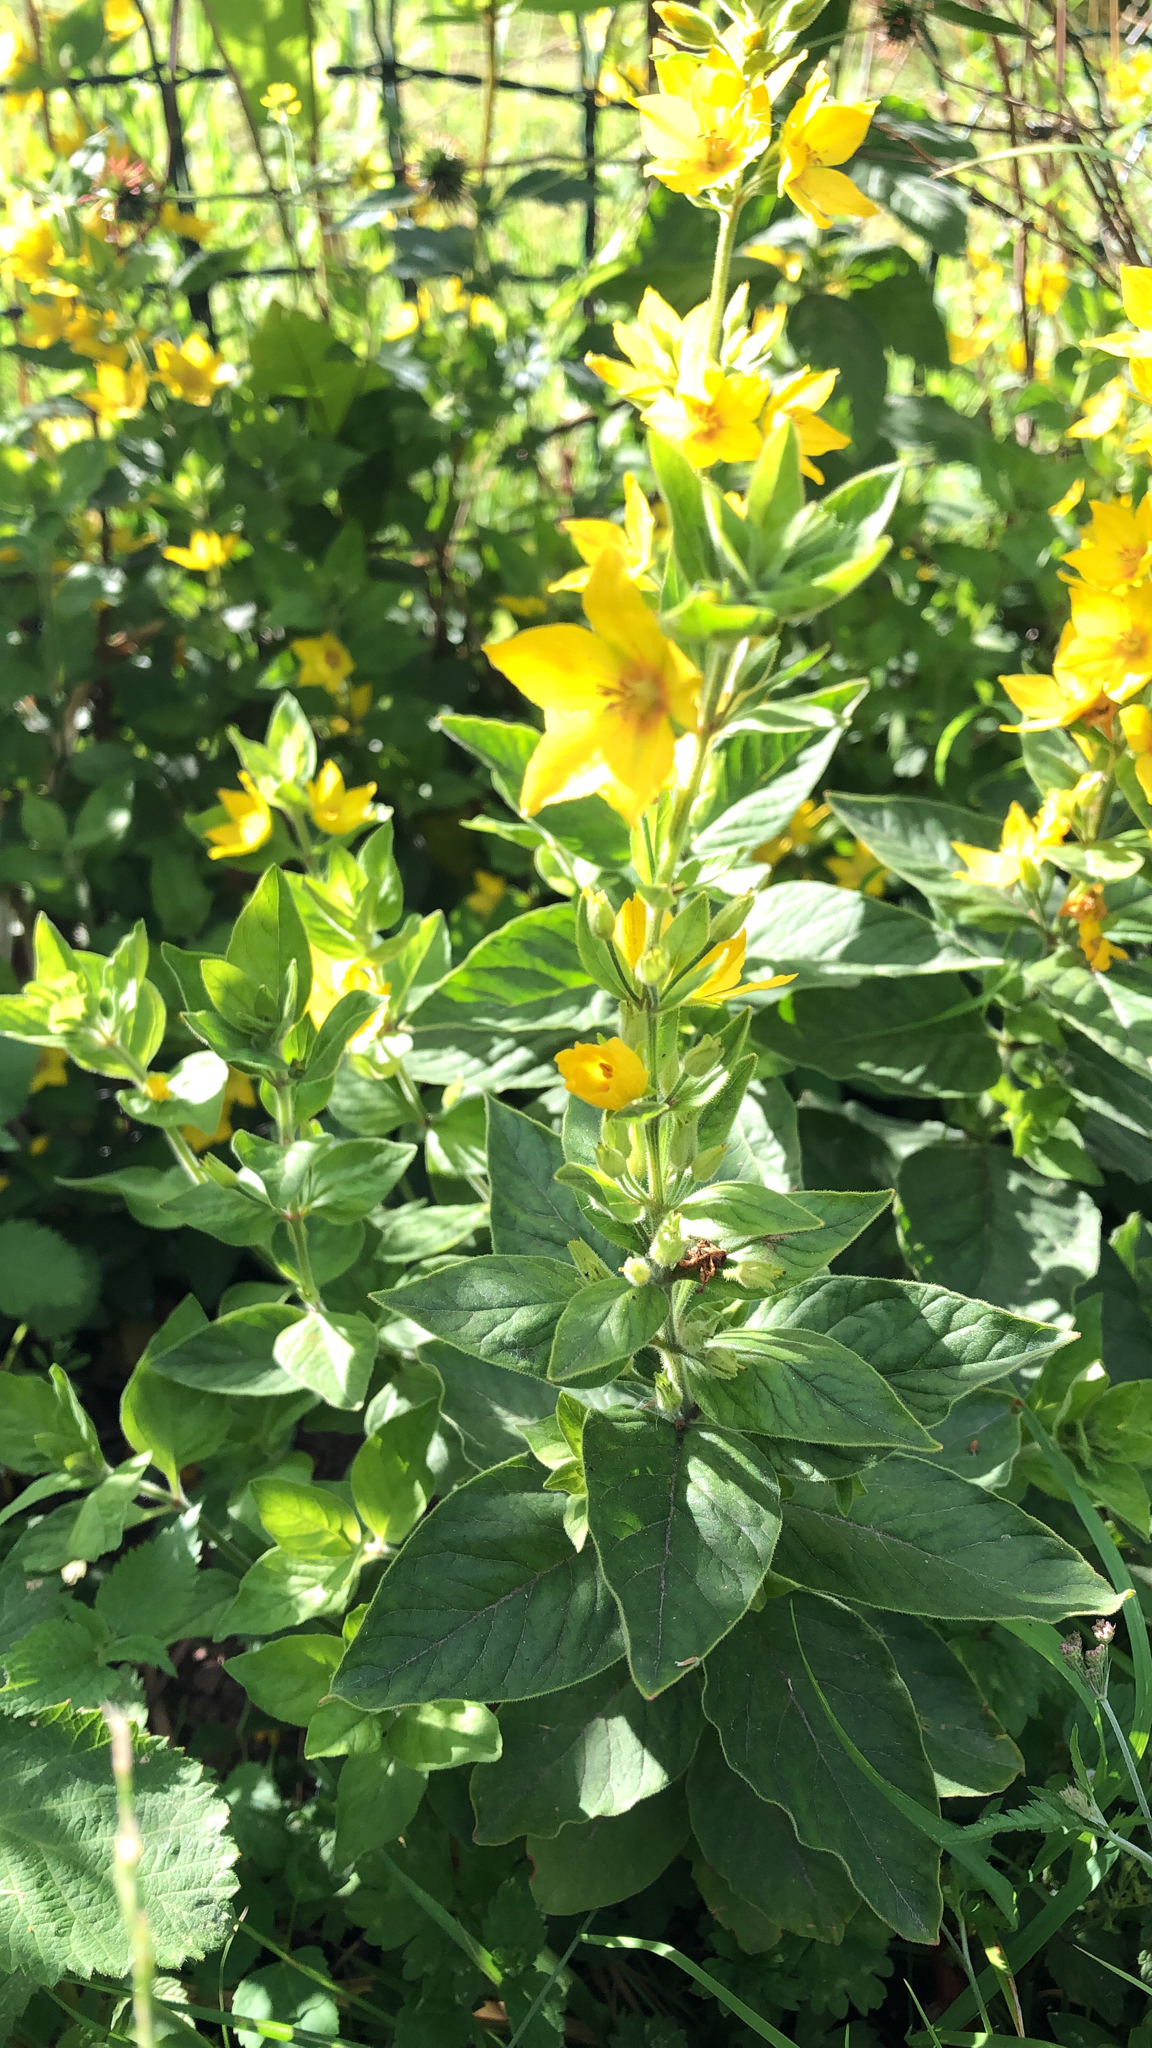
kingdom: Plantae
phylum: Tracheophyta
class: Magnoliopsida
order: Ericales
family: Primulaceae
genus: Lysimachia
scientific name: Lysimachia punctata
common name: Dotted loosestrife
